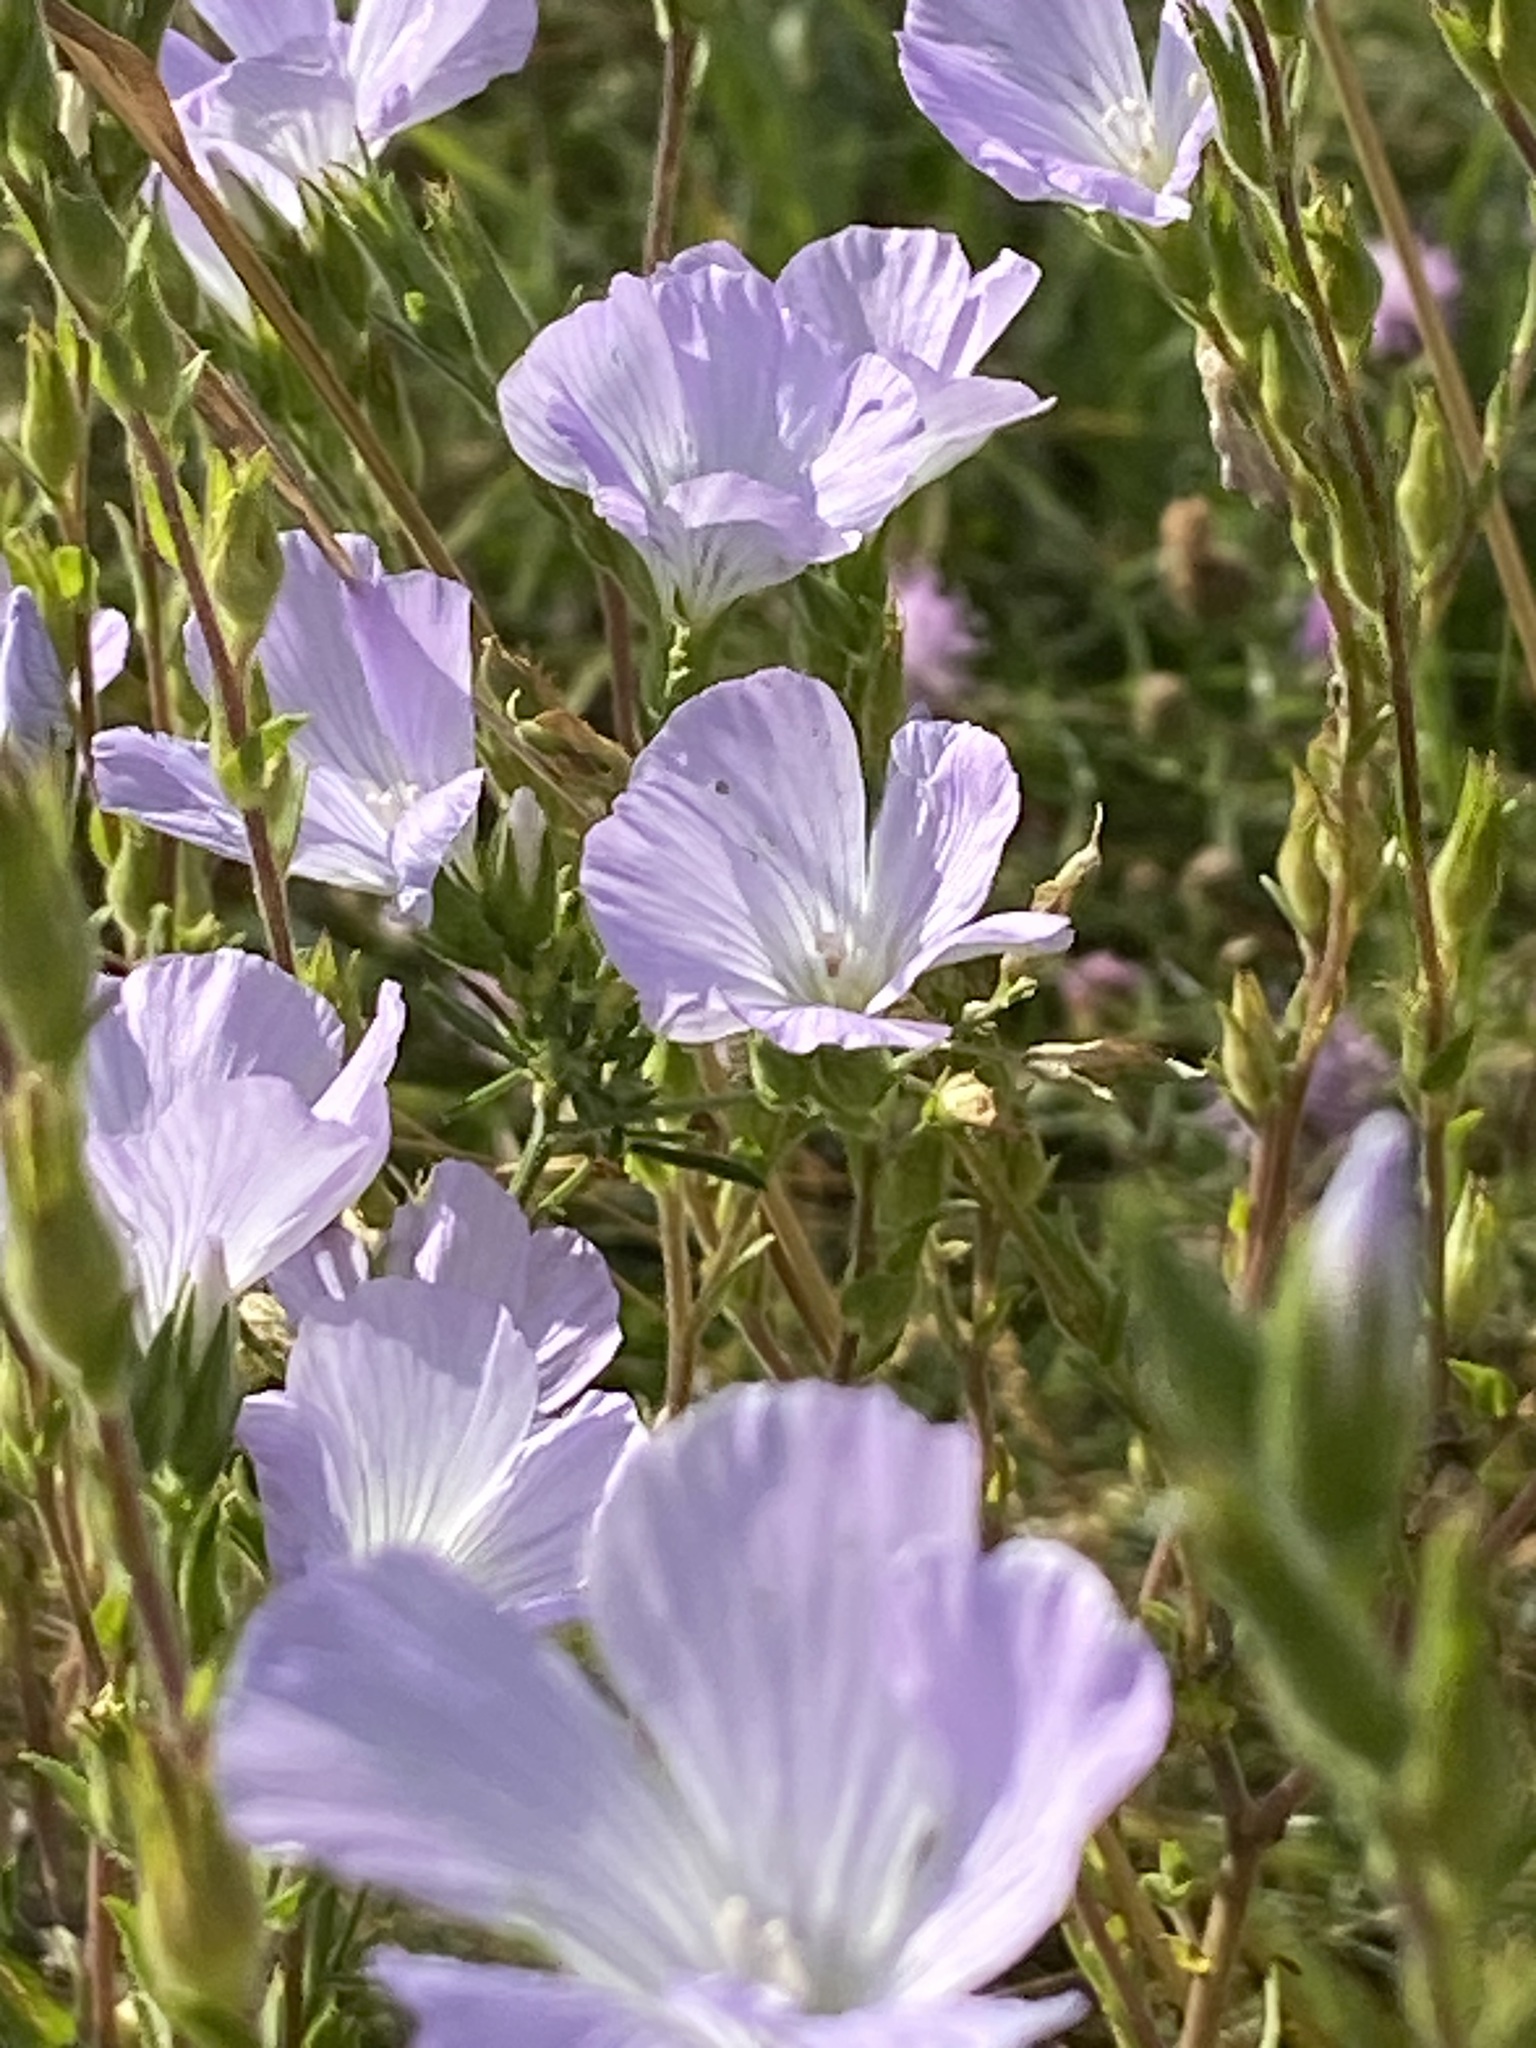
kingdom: Plantae
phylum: Tracheophyta
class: Magnoliopsida
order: Malpighiales
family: Linaceae
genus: Linum
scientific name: Linum hirsutum
